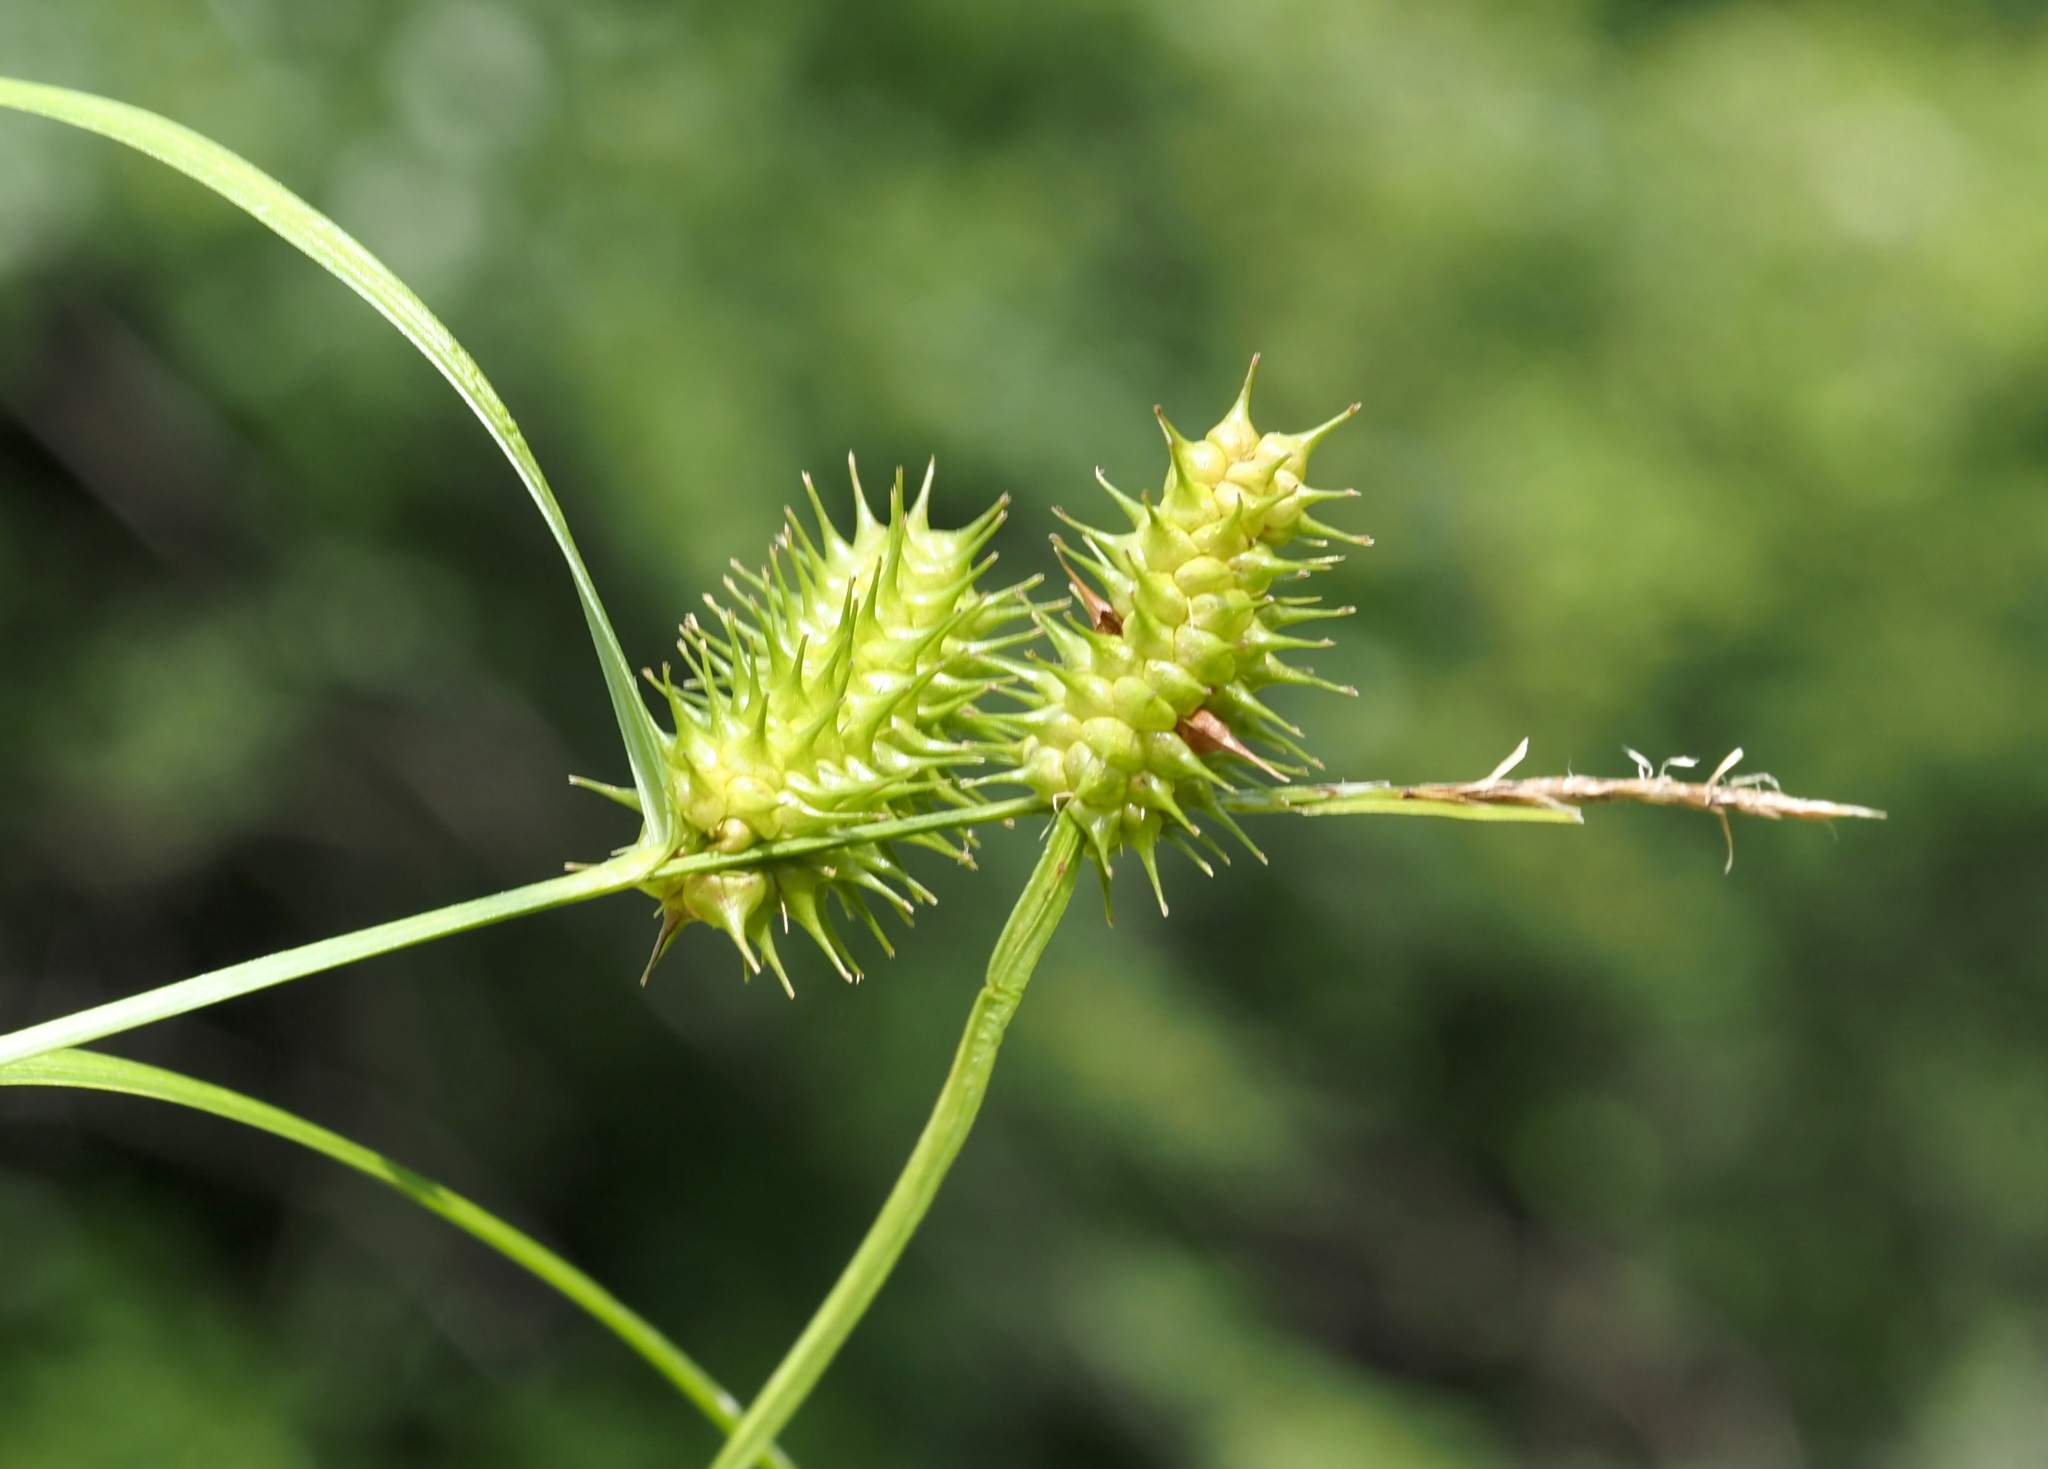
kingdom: Plantae
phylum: Tracheophyta
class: Liliopsida
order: Poales
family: Cyperaceae
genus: Carex
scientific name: Carex lurida
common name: Sallow sedge
